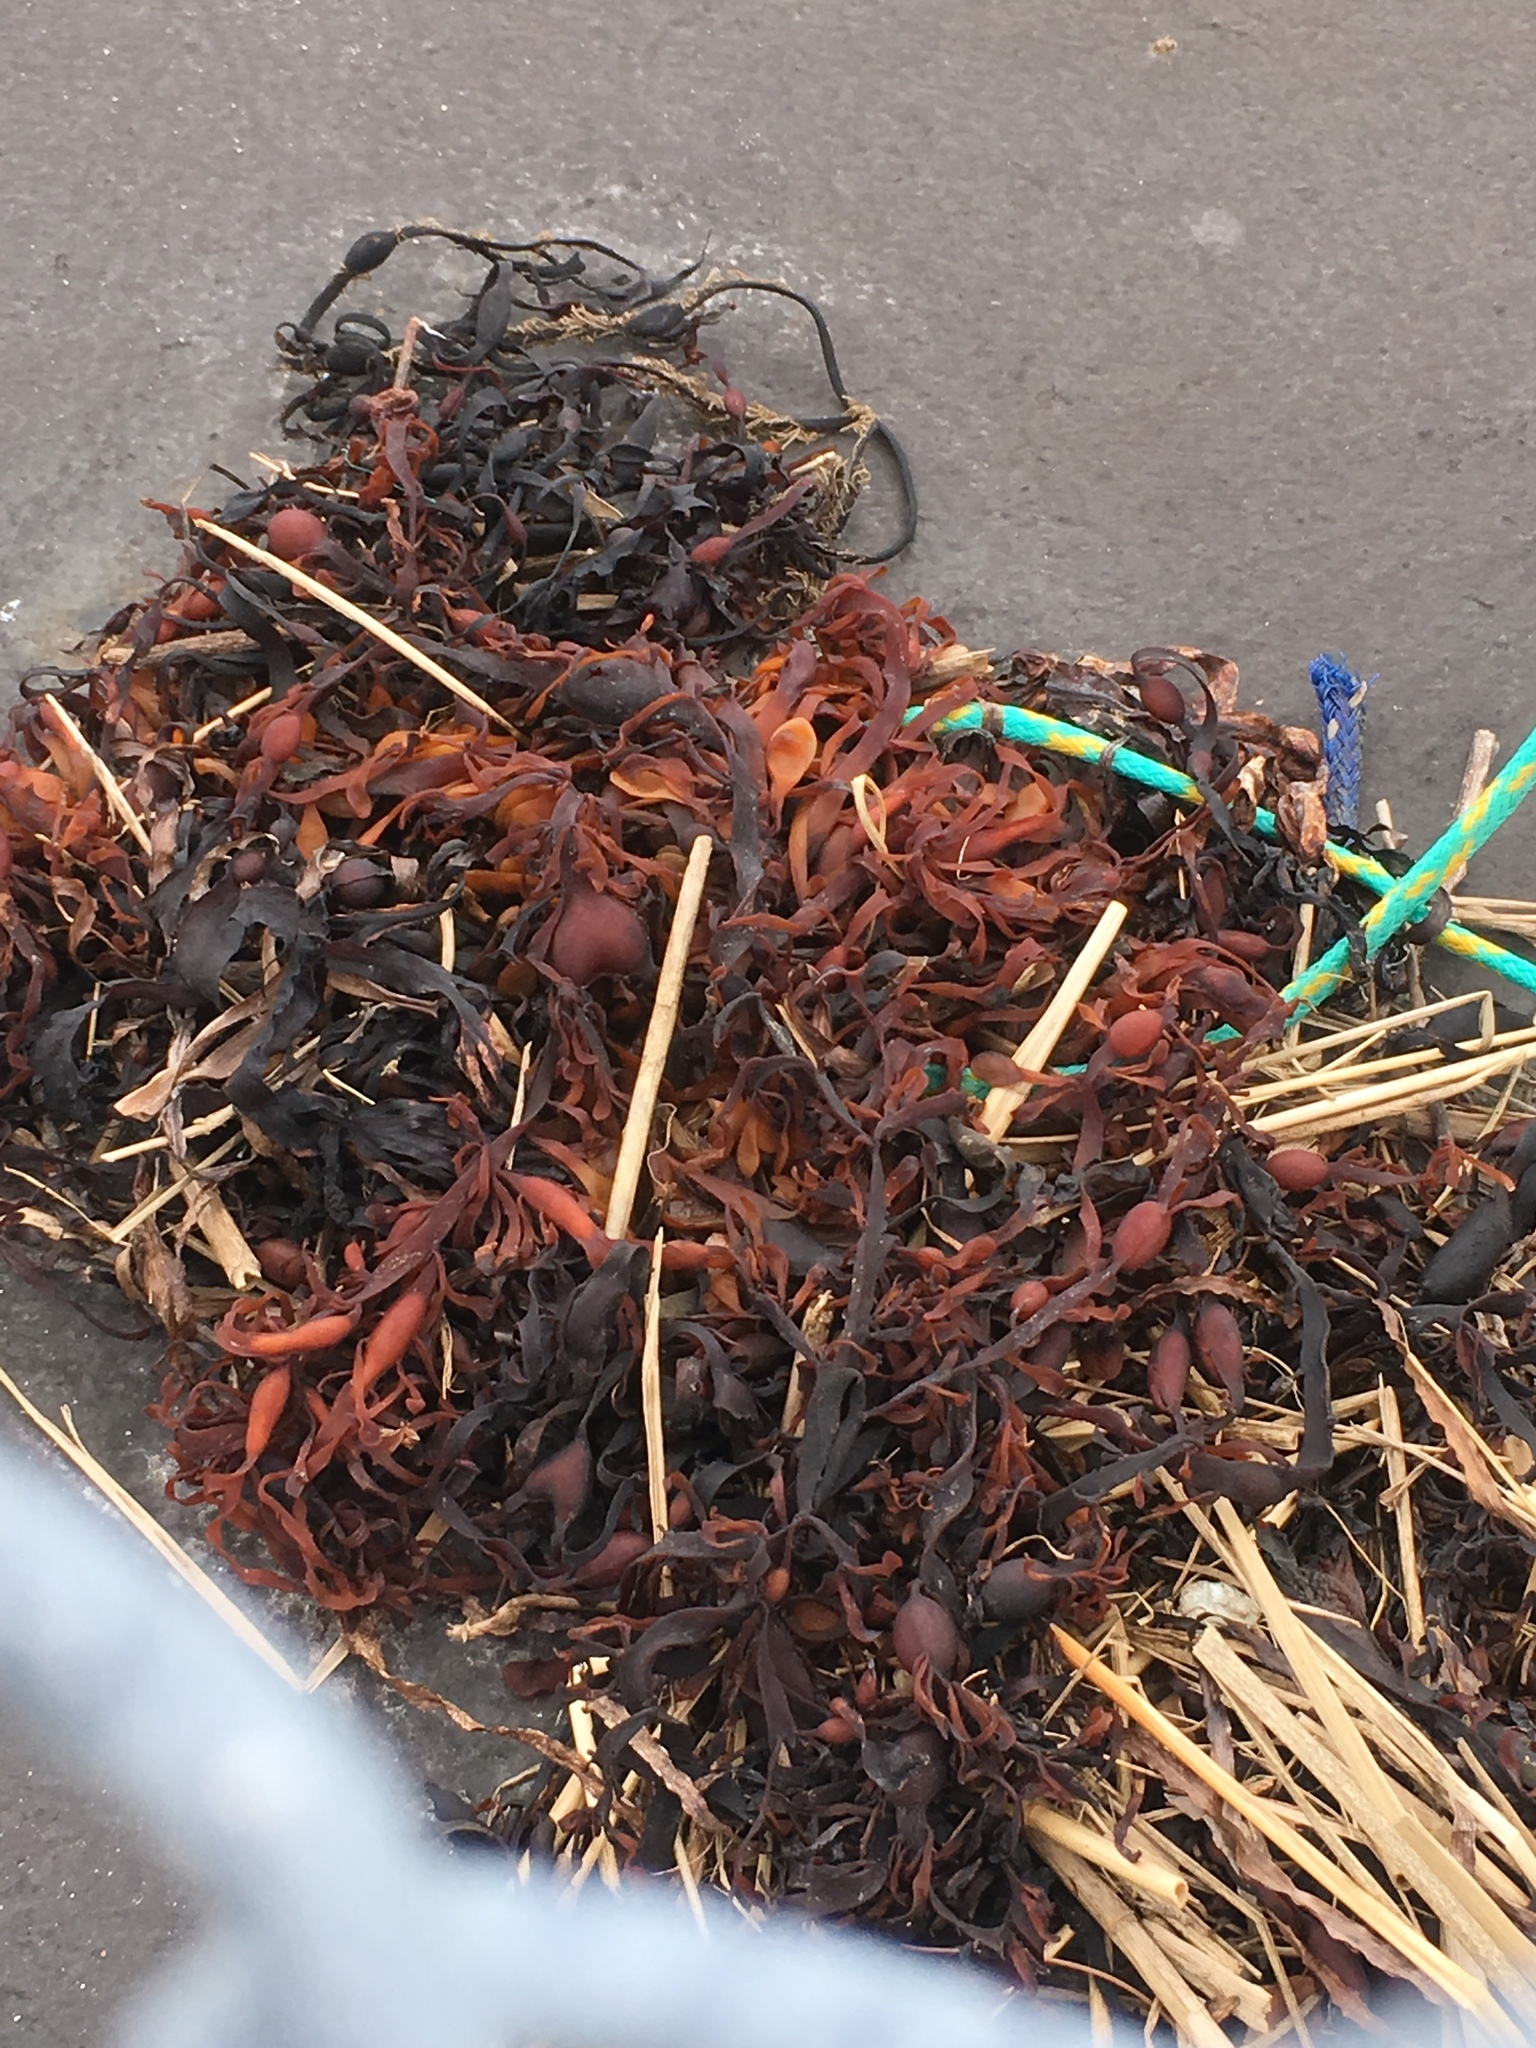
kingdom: Chromista
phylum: Ochrophyta
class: Phaeophyceae
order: Fucales
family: Fucaceae
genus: Ascophyllum
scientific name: Ascophyllum nodosum
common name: Knotted wrack
